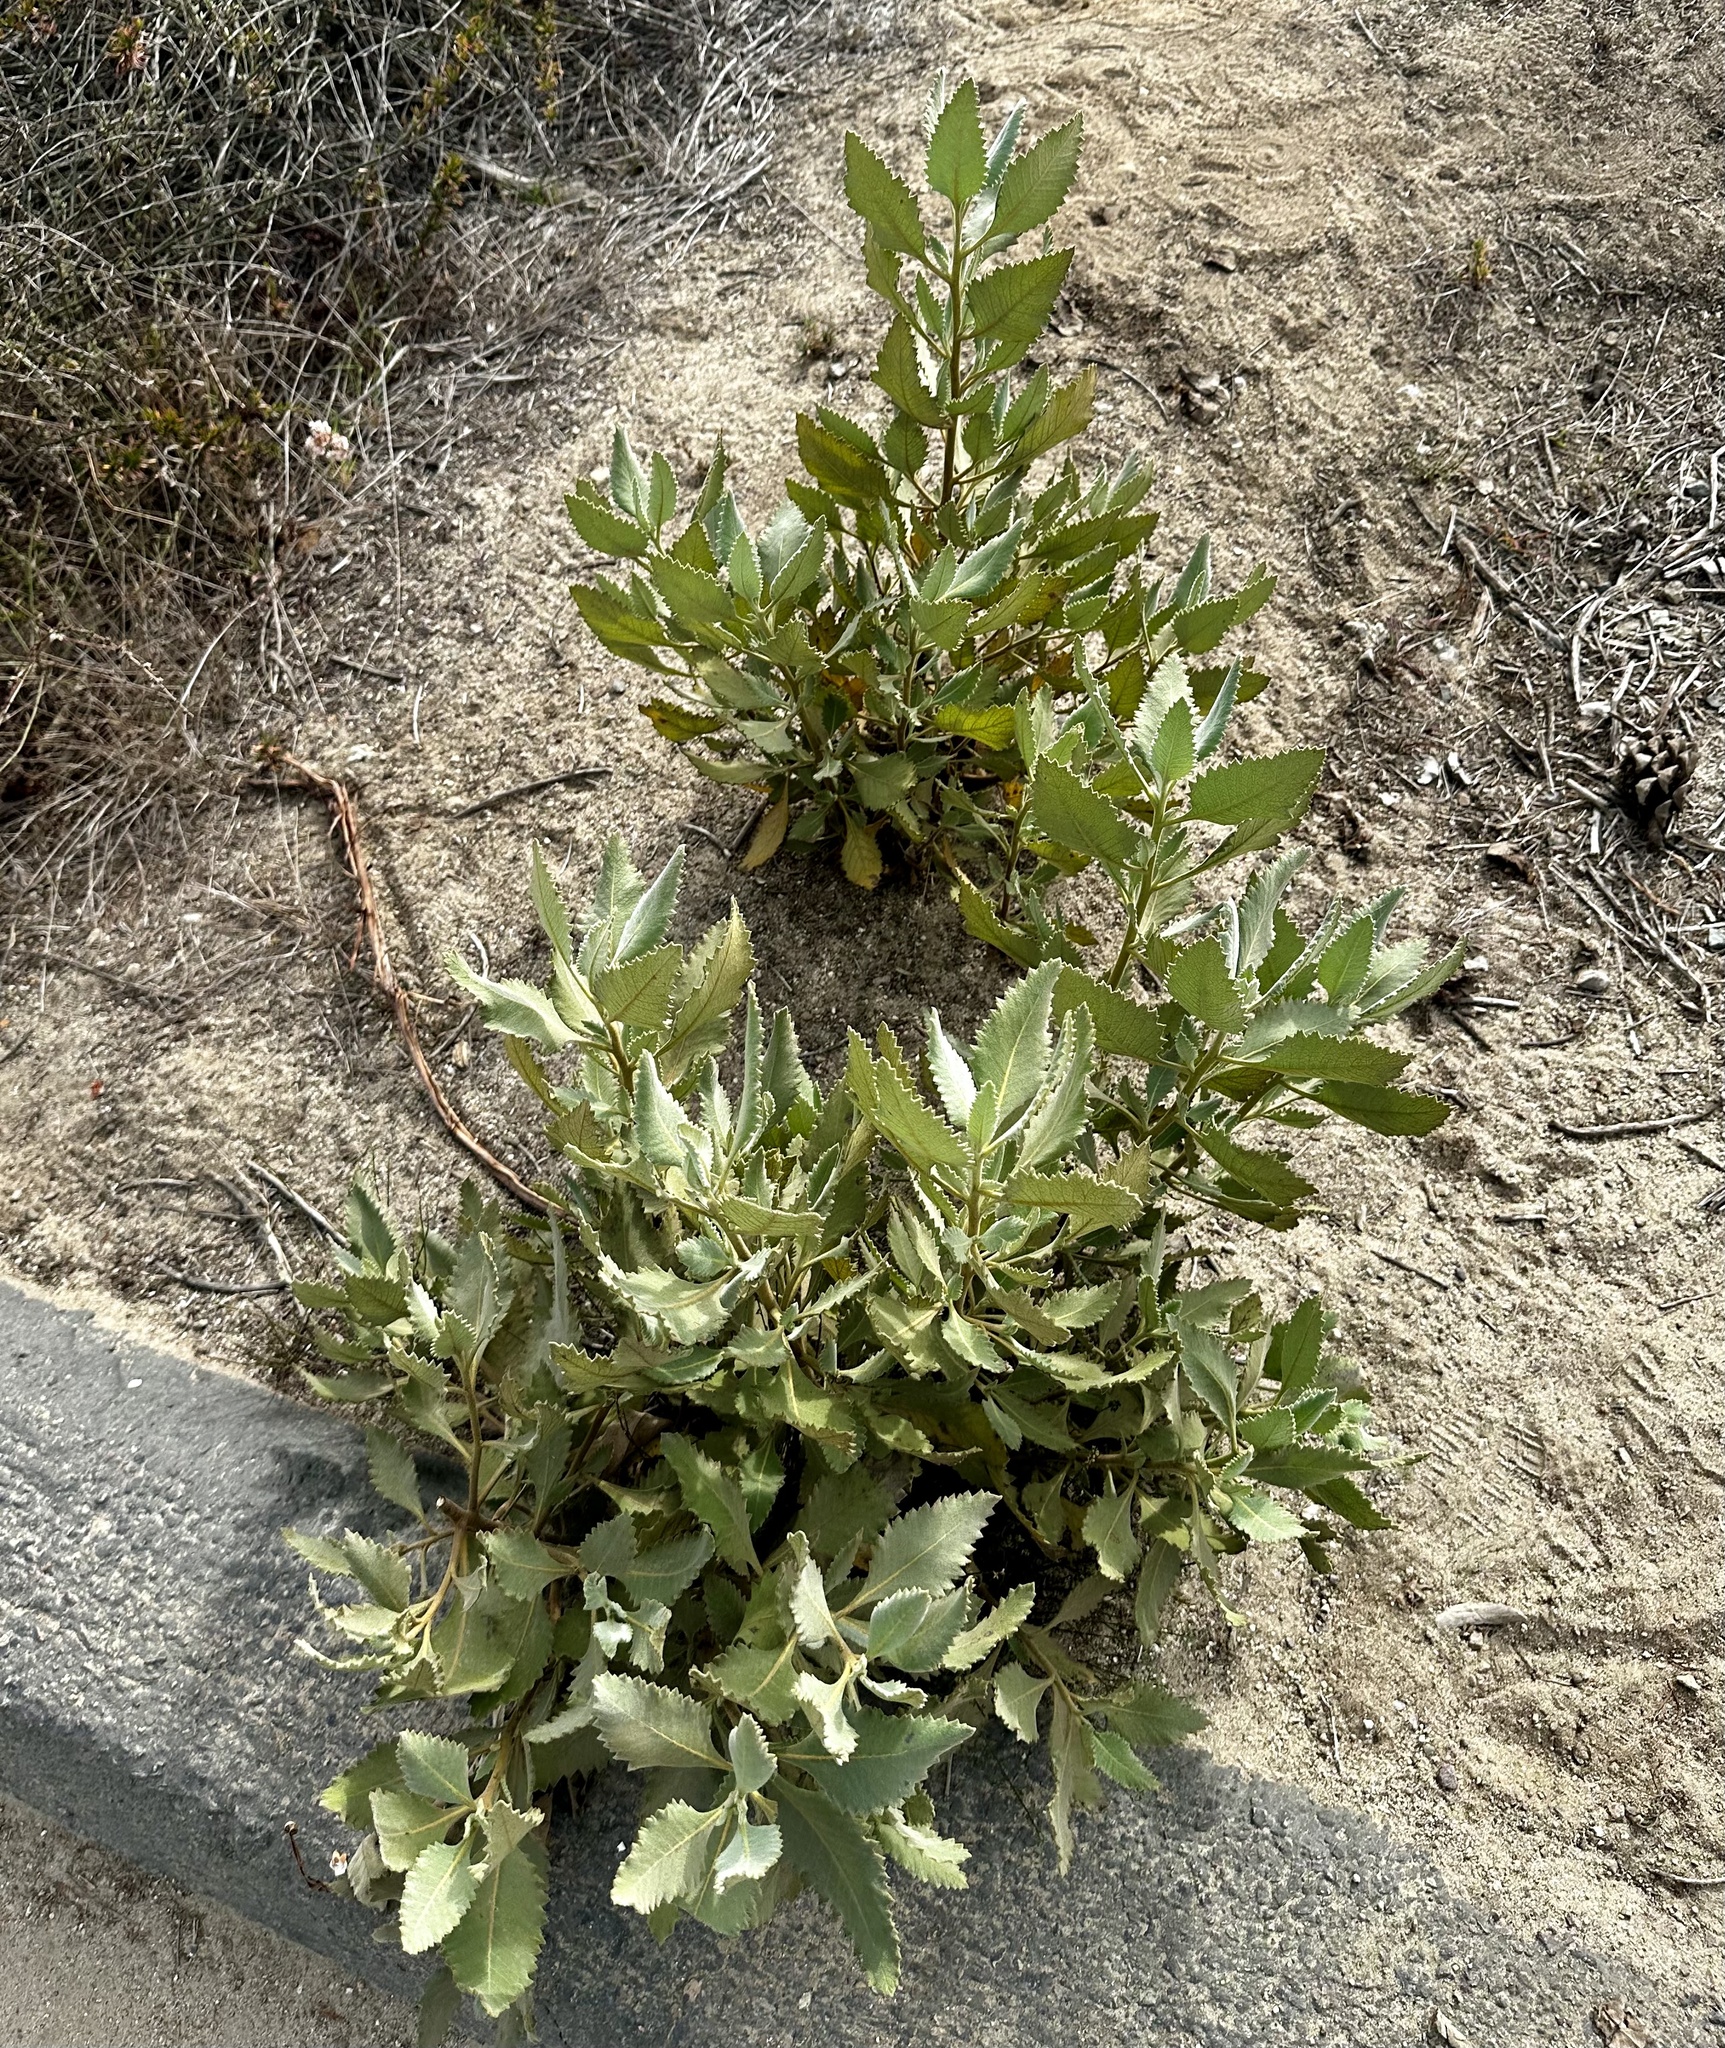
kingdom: Plantae
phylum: Tracheophyta
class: Magnoliopsida
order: Boraginales
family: Namaceae
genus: Eriodictyon
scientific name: Eriodictyon crassifolium
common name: Thick-leaf yerba-santa
